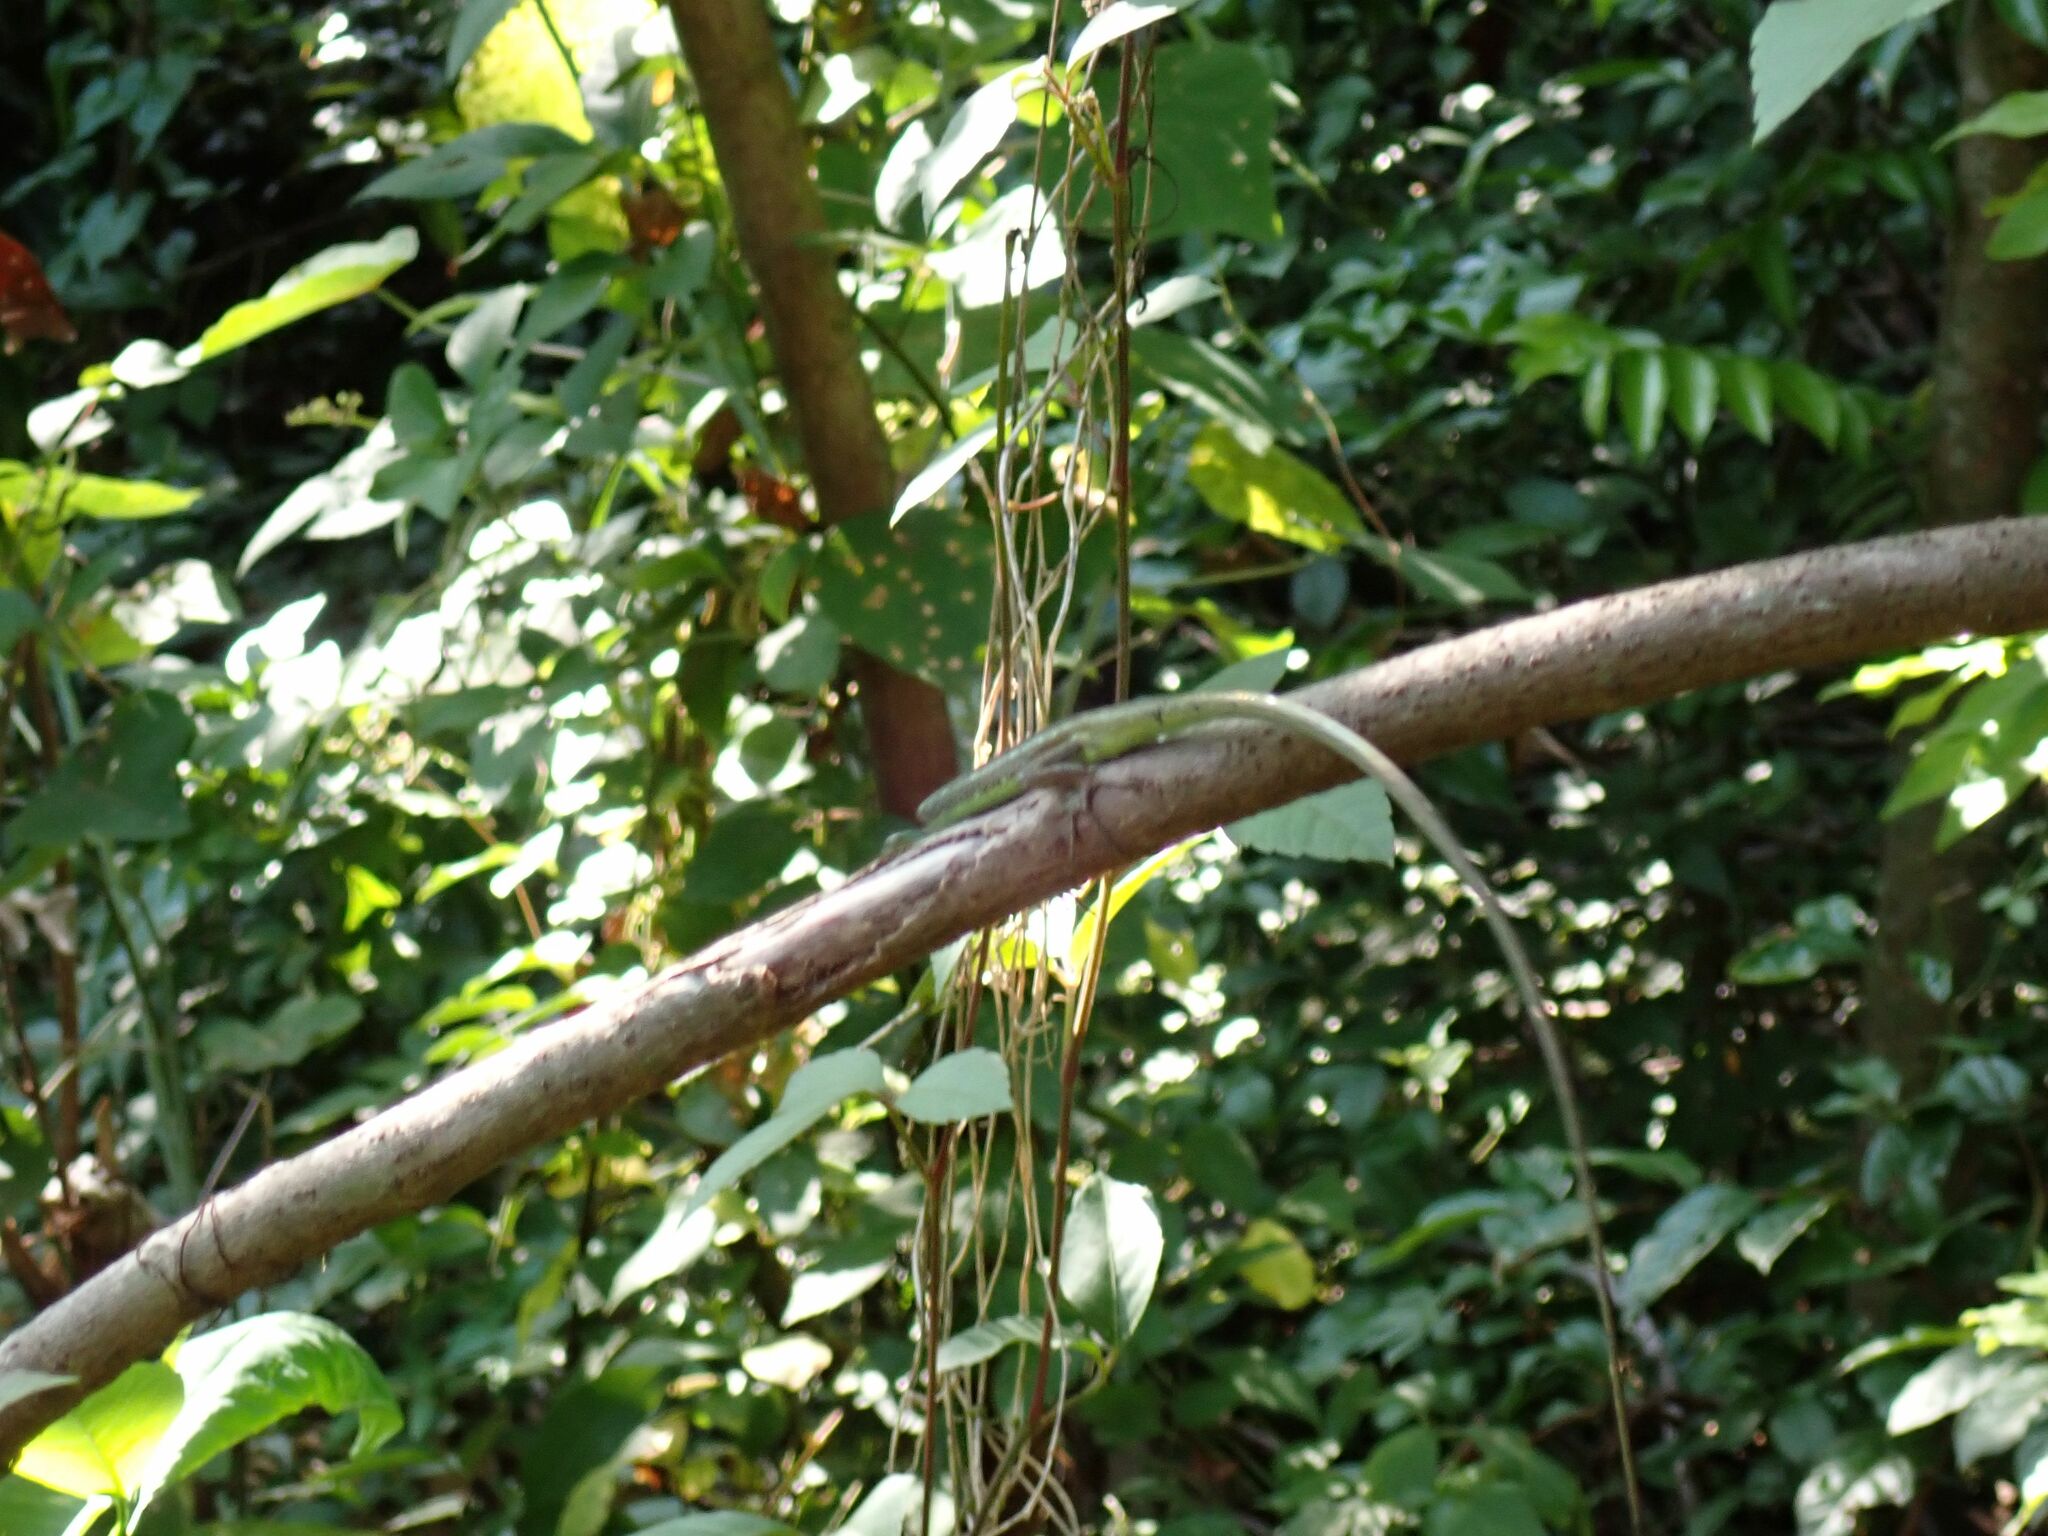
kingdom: Animalia
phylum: Chordata
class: Squamata
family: Scincidae
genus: Emoia
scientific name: Emoia cyanogaster
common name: Teal emo skink
